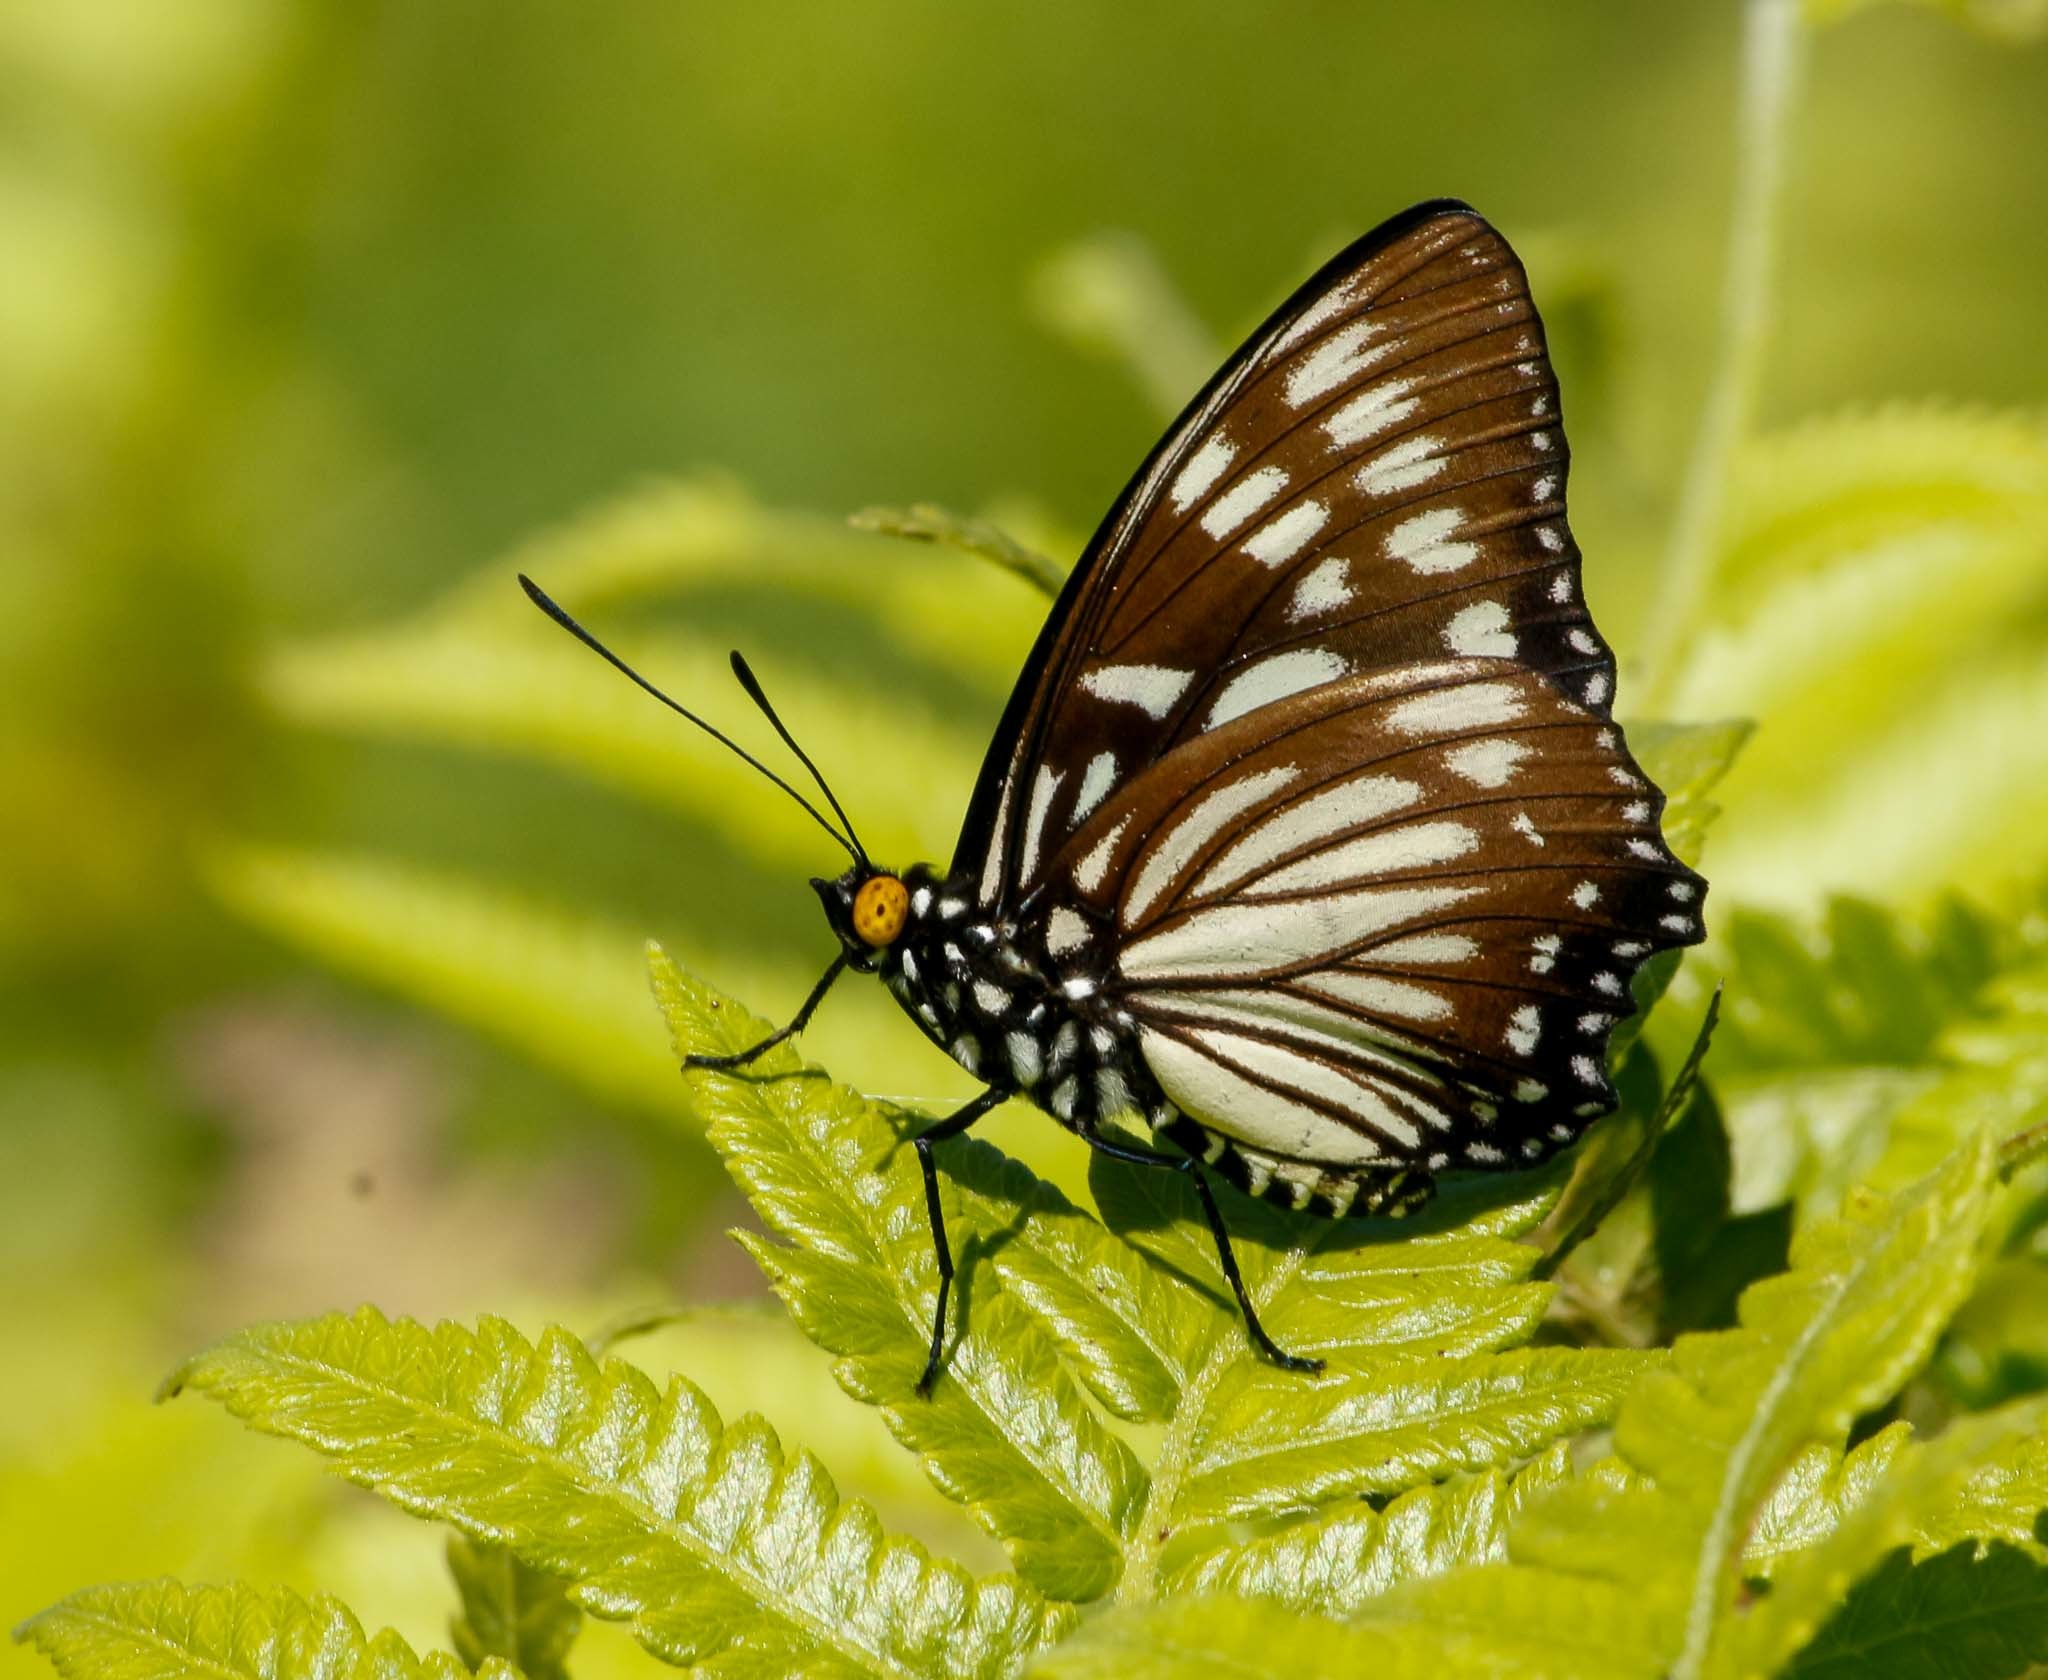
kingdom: Animalia
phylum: Arthropoda
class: Insecta
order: Lepidoptera
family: Nymphalidae
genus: Euripus
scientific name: Euripus nyctelius
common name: Courtesan
